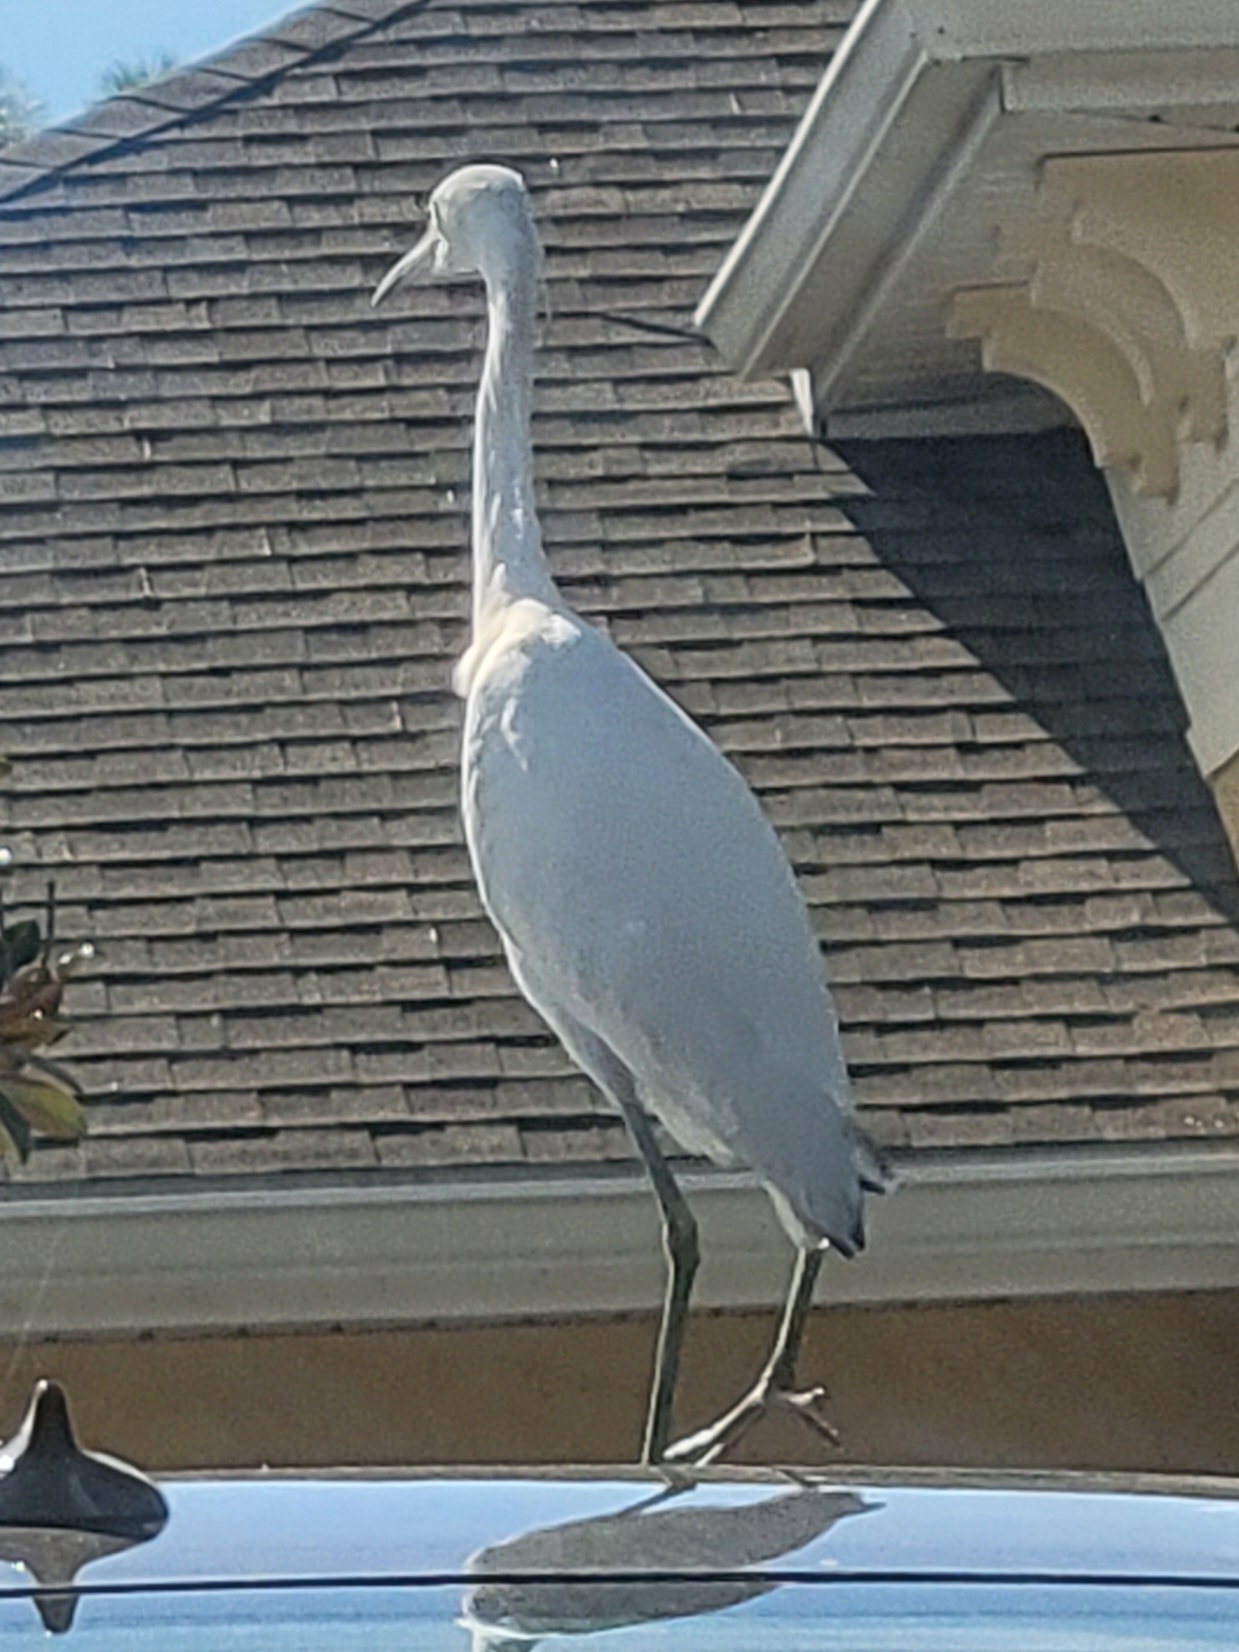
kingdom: Animalia
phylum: Chordata
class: Aves
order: Pelecaniformes
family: Ardeidae
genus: Egretta
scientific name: Egretta caerulea
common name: Little blue heron
